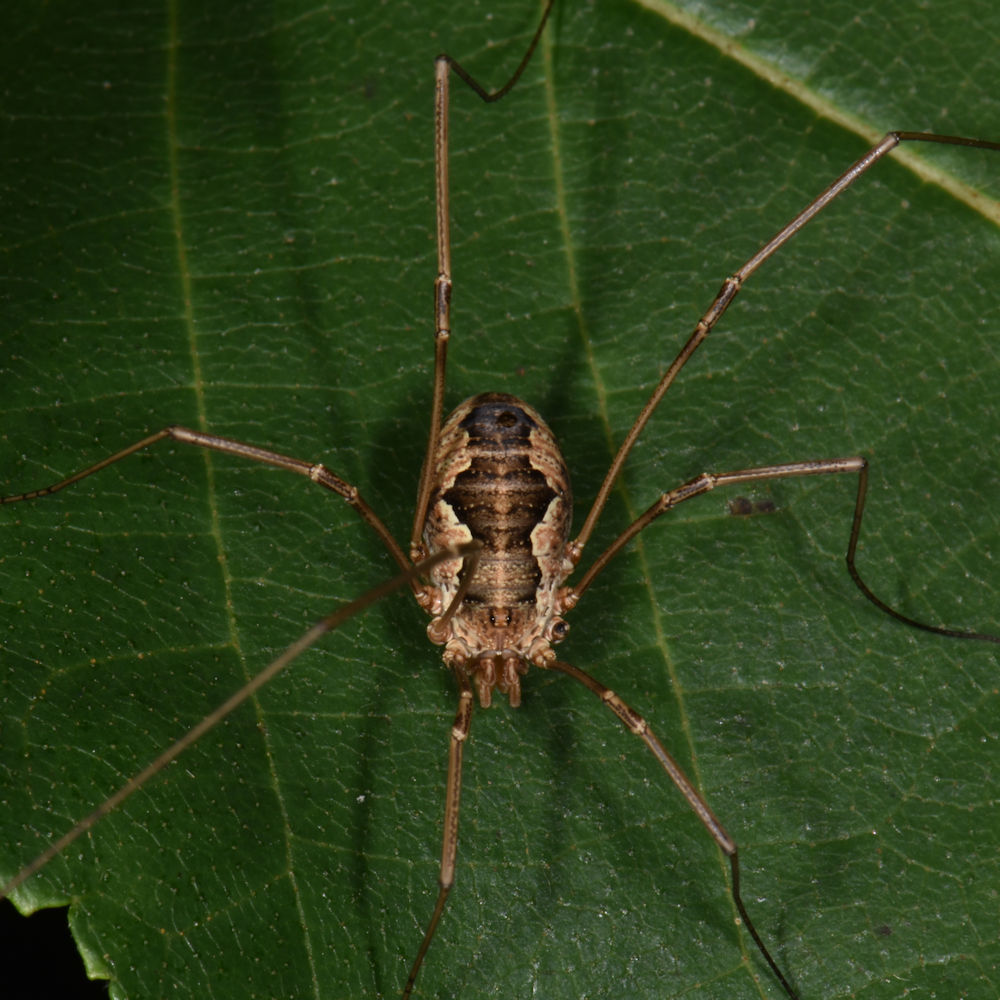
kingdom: Animalia
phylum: Arthropoda
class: Arachnida
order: Opiliones
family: Phalangiidae
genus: Phalangium
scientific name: Phalangium opilio
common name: Daddy longleg
